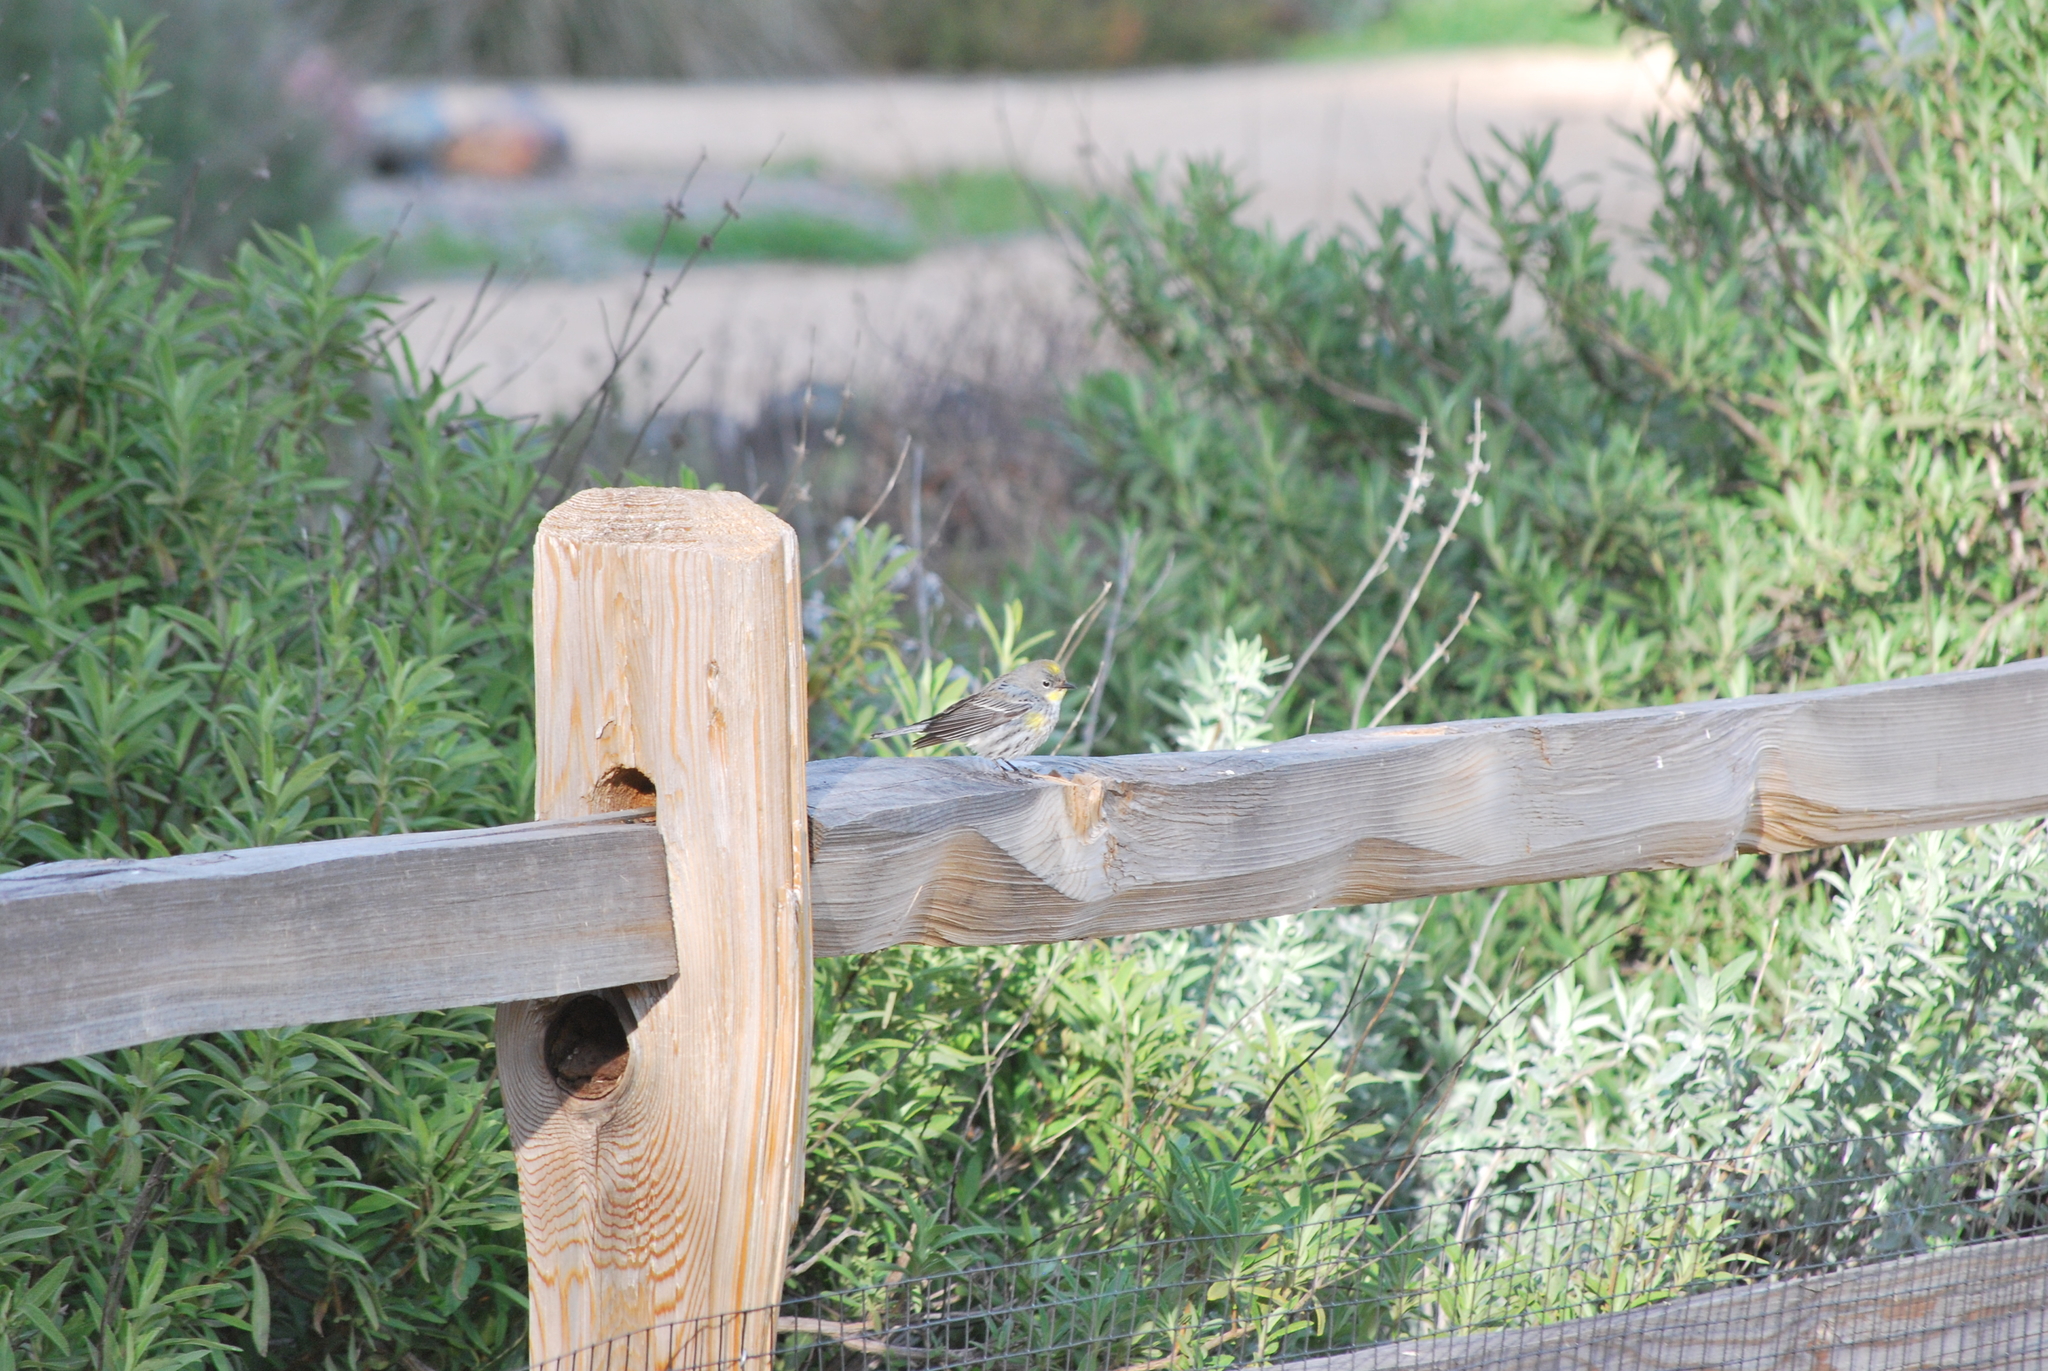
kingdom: Animalia
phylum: Chordata
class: Aves
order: Passeriformes
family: Parulidae
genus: Setophaga
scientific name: Setophaga auduboni
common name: Audubon's warbler
